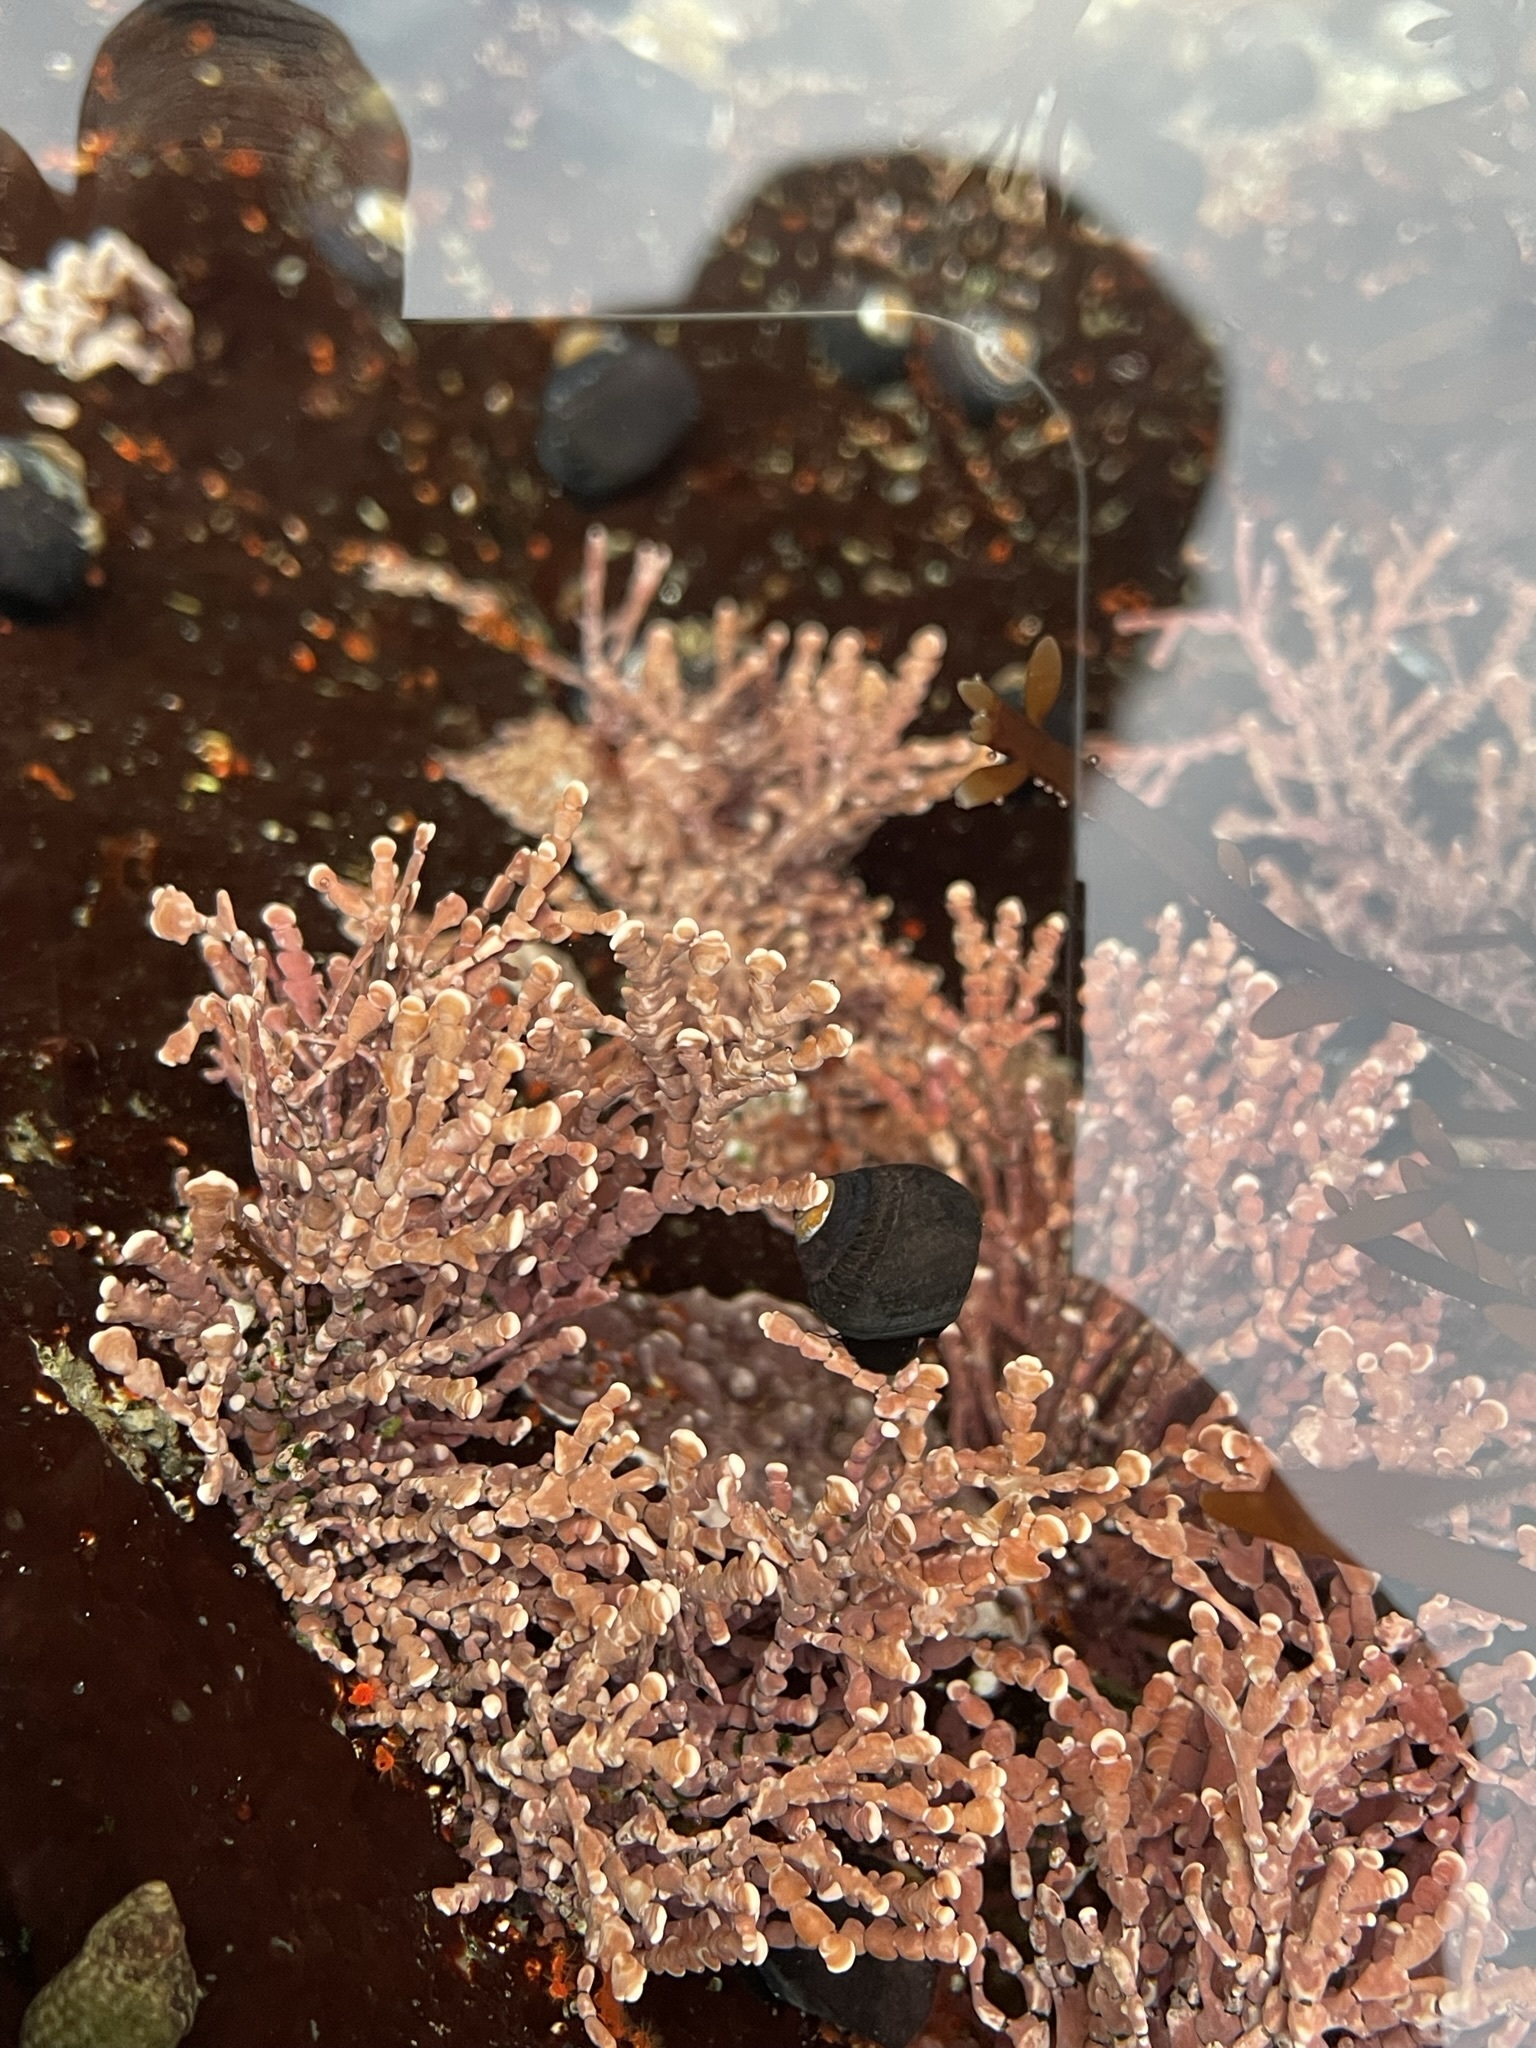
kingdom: Plantae
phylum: Rhodophyta
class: Florideophyceae
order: Corallinales
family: Corallinaceae
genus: Calliarthron
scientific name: Calliarthron tuberculosum
